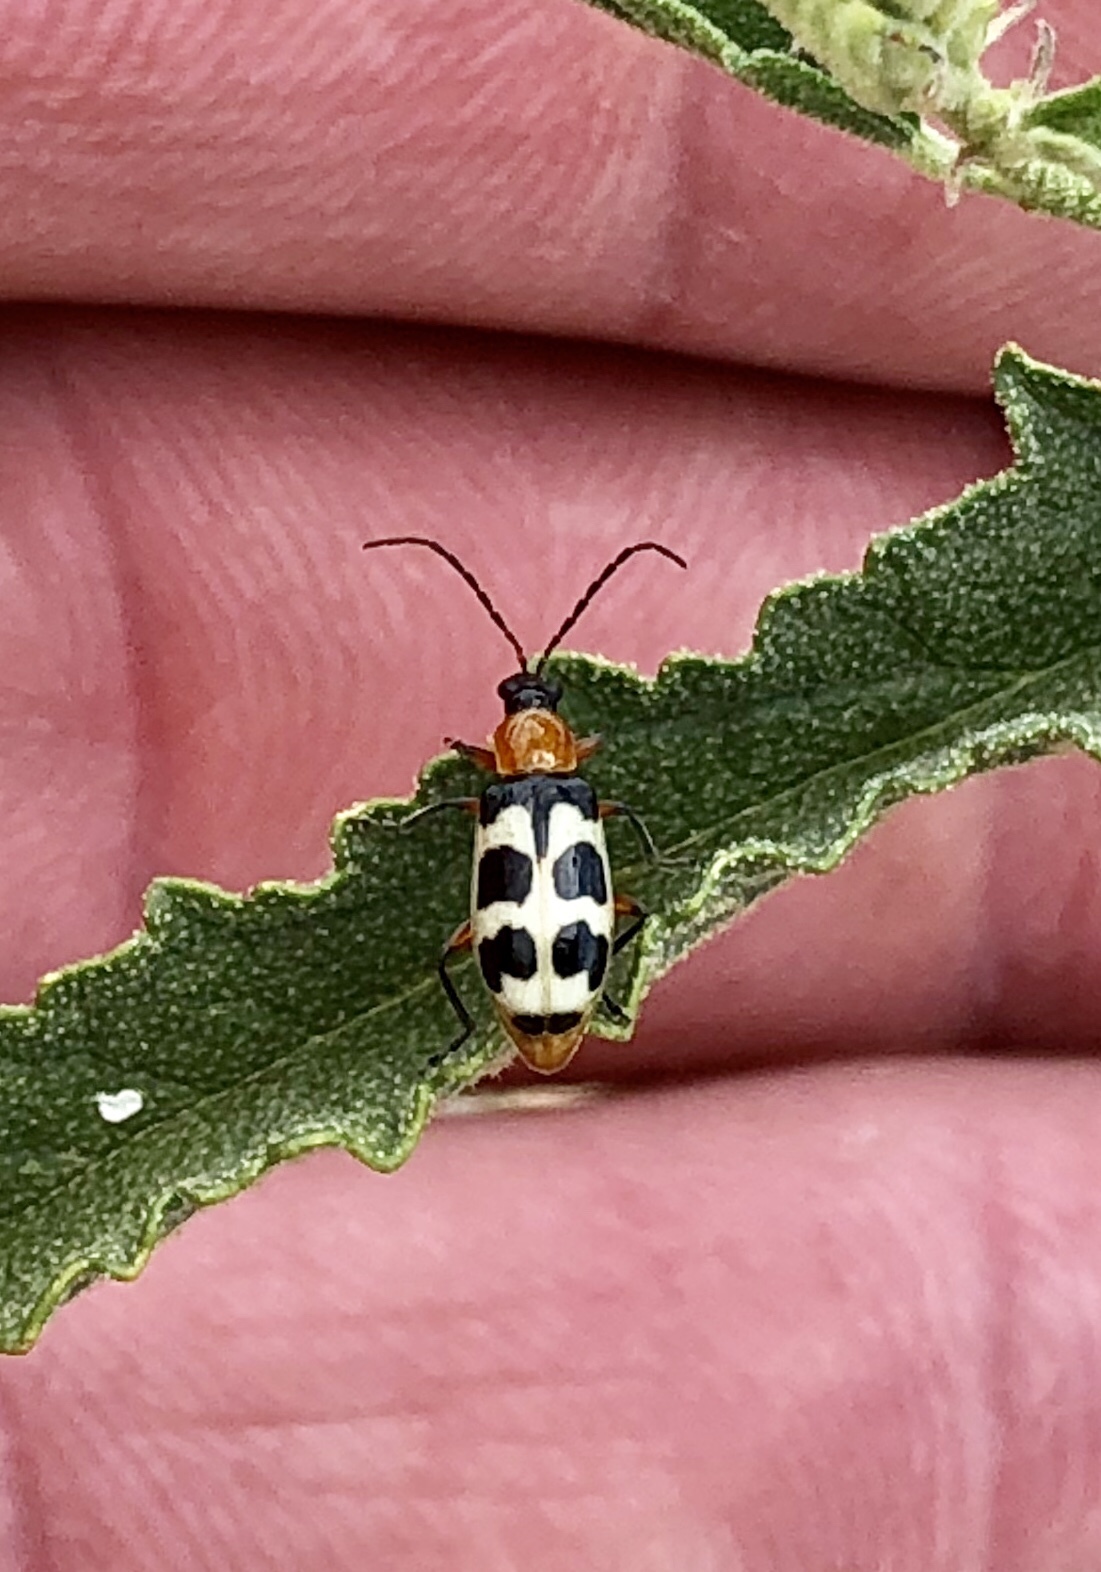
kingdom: Animalia
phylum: Arthropoda
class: Insecta
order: Coleoptera
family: Chrysomelidae
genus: Paranapiacaba
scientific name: Paranapiacaba tricincta
